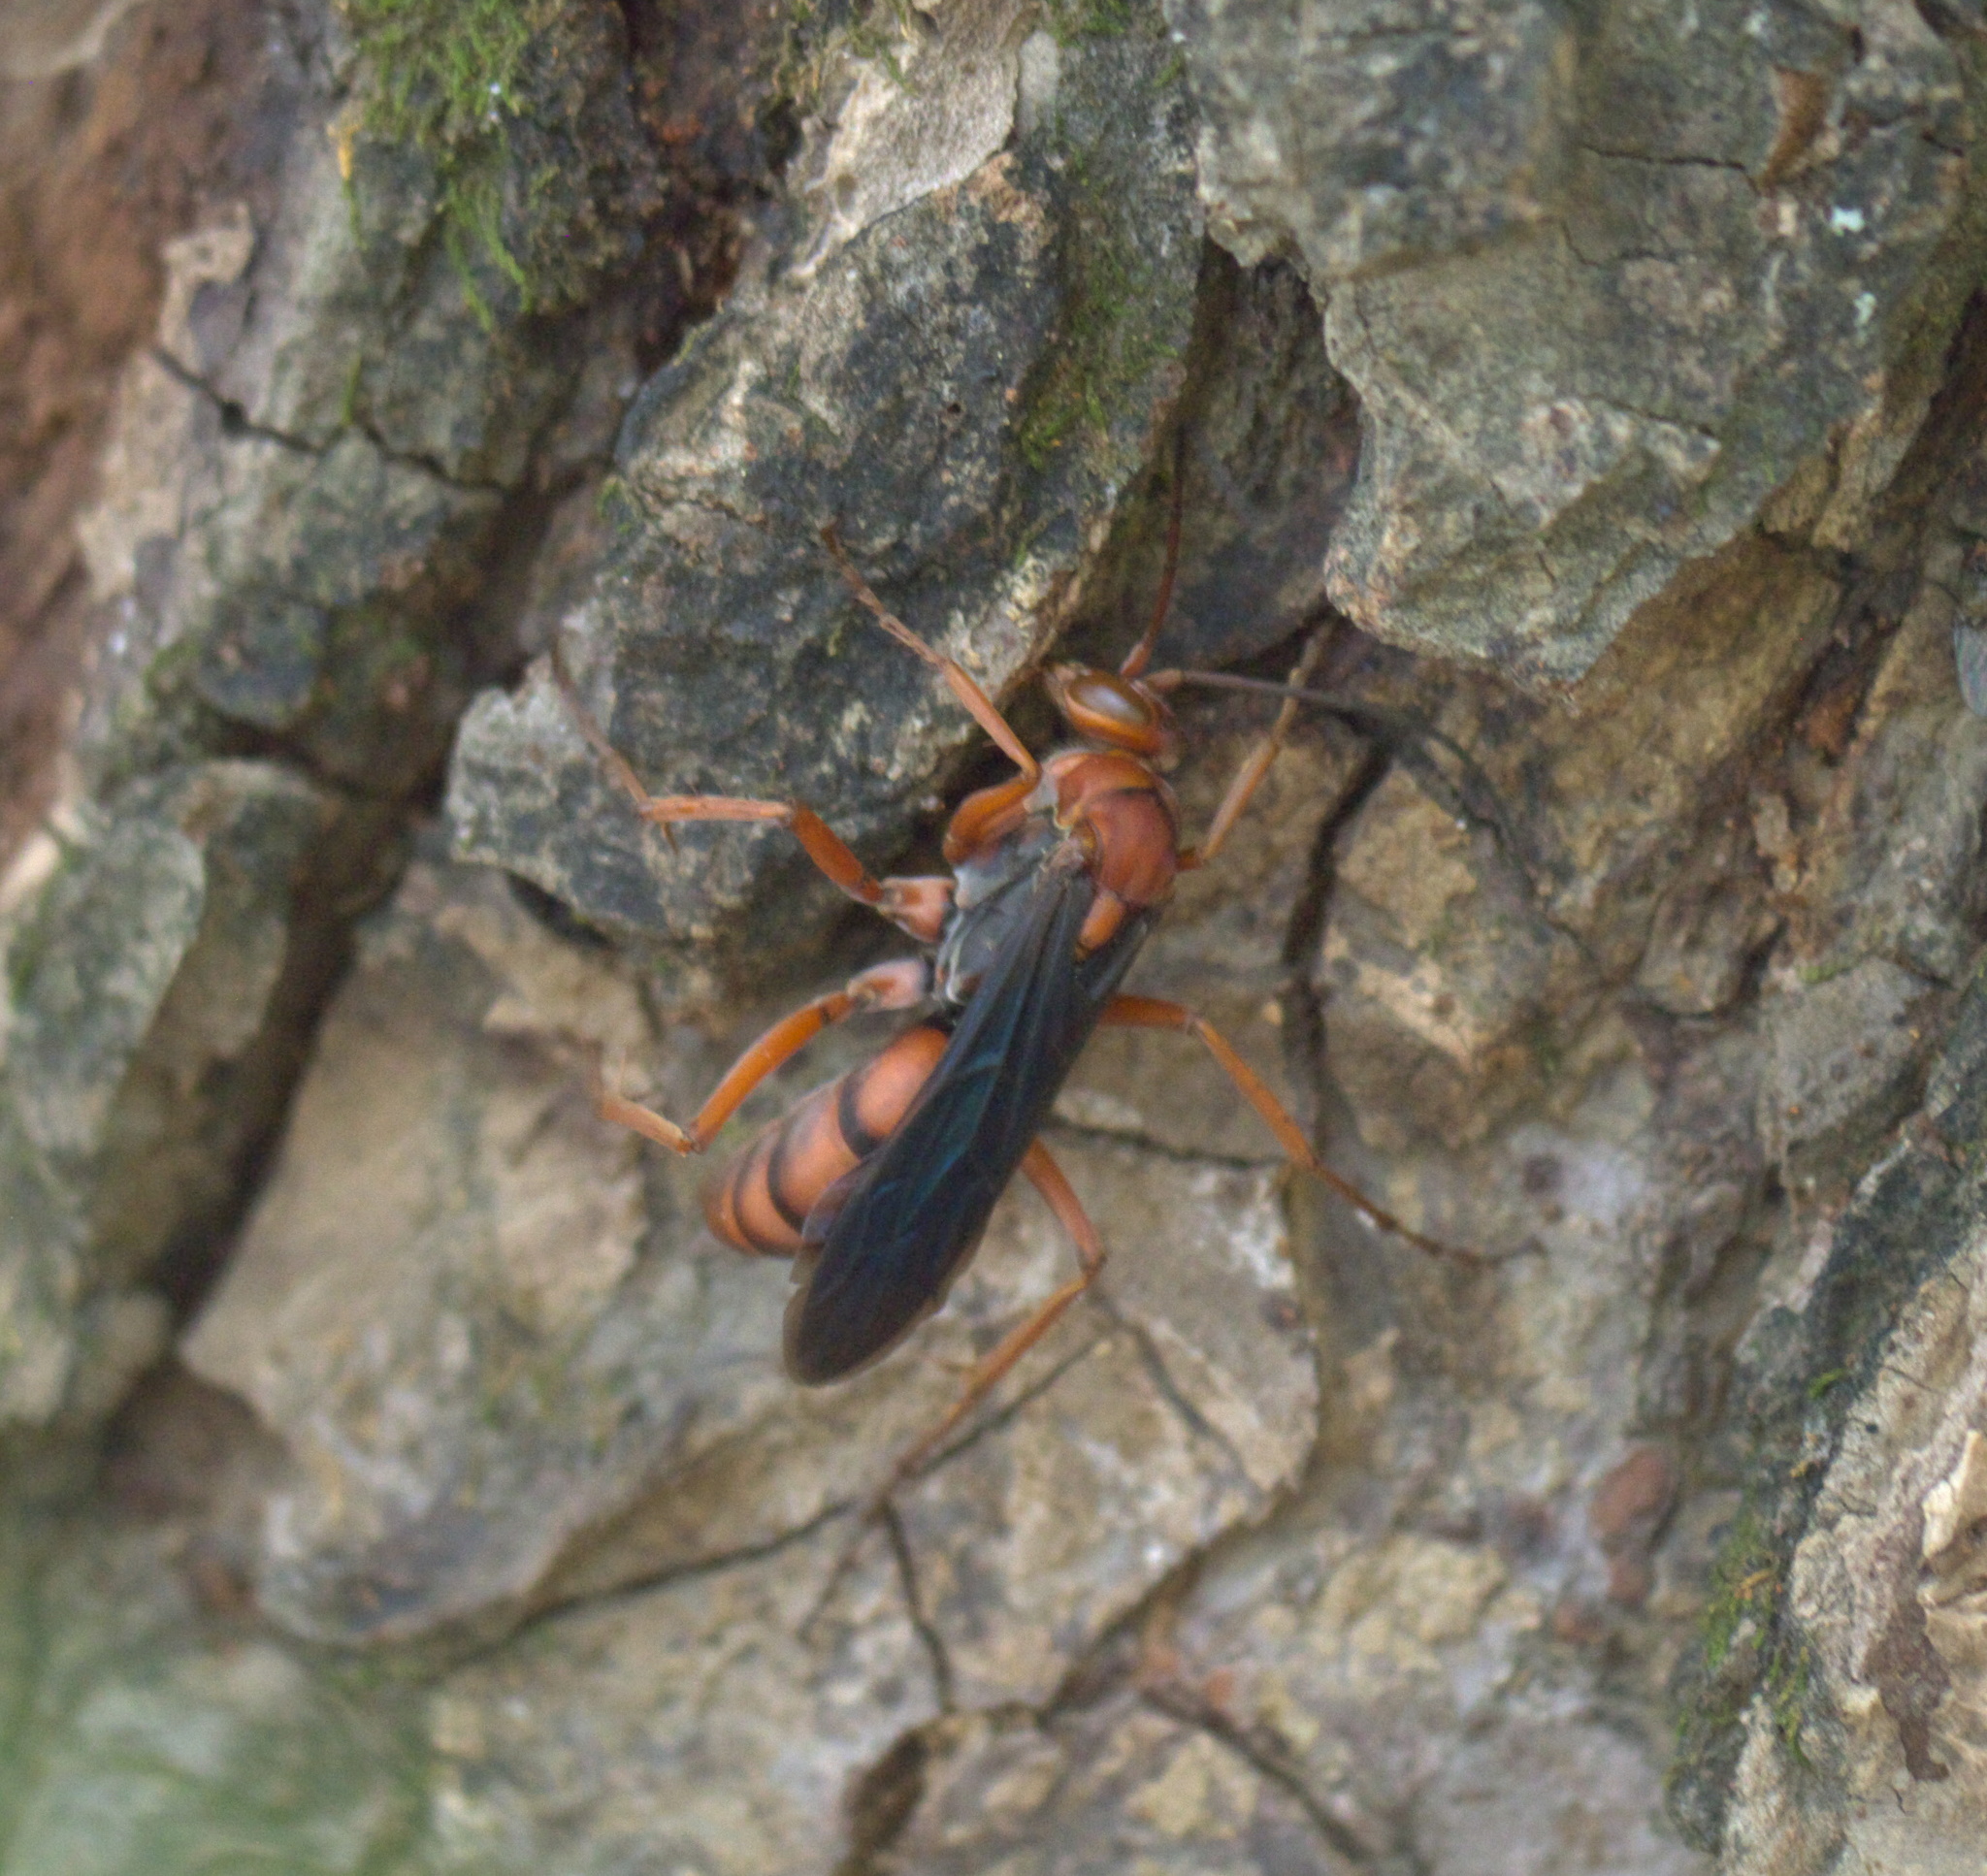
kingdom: Animalia
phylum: Arthropoda
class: Insecta
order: Hymenoptera
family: Pompilidae
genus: Tachypompilus
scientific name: Tachypompilus ferrugineus
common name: Rusty spider wasp
